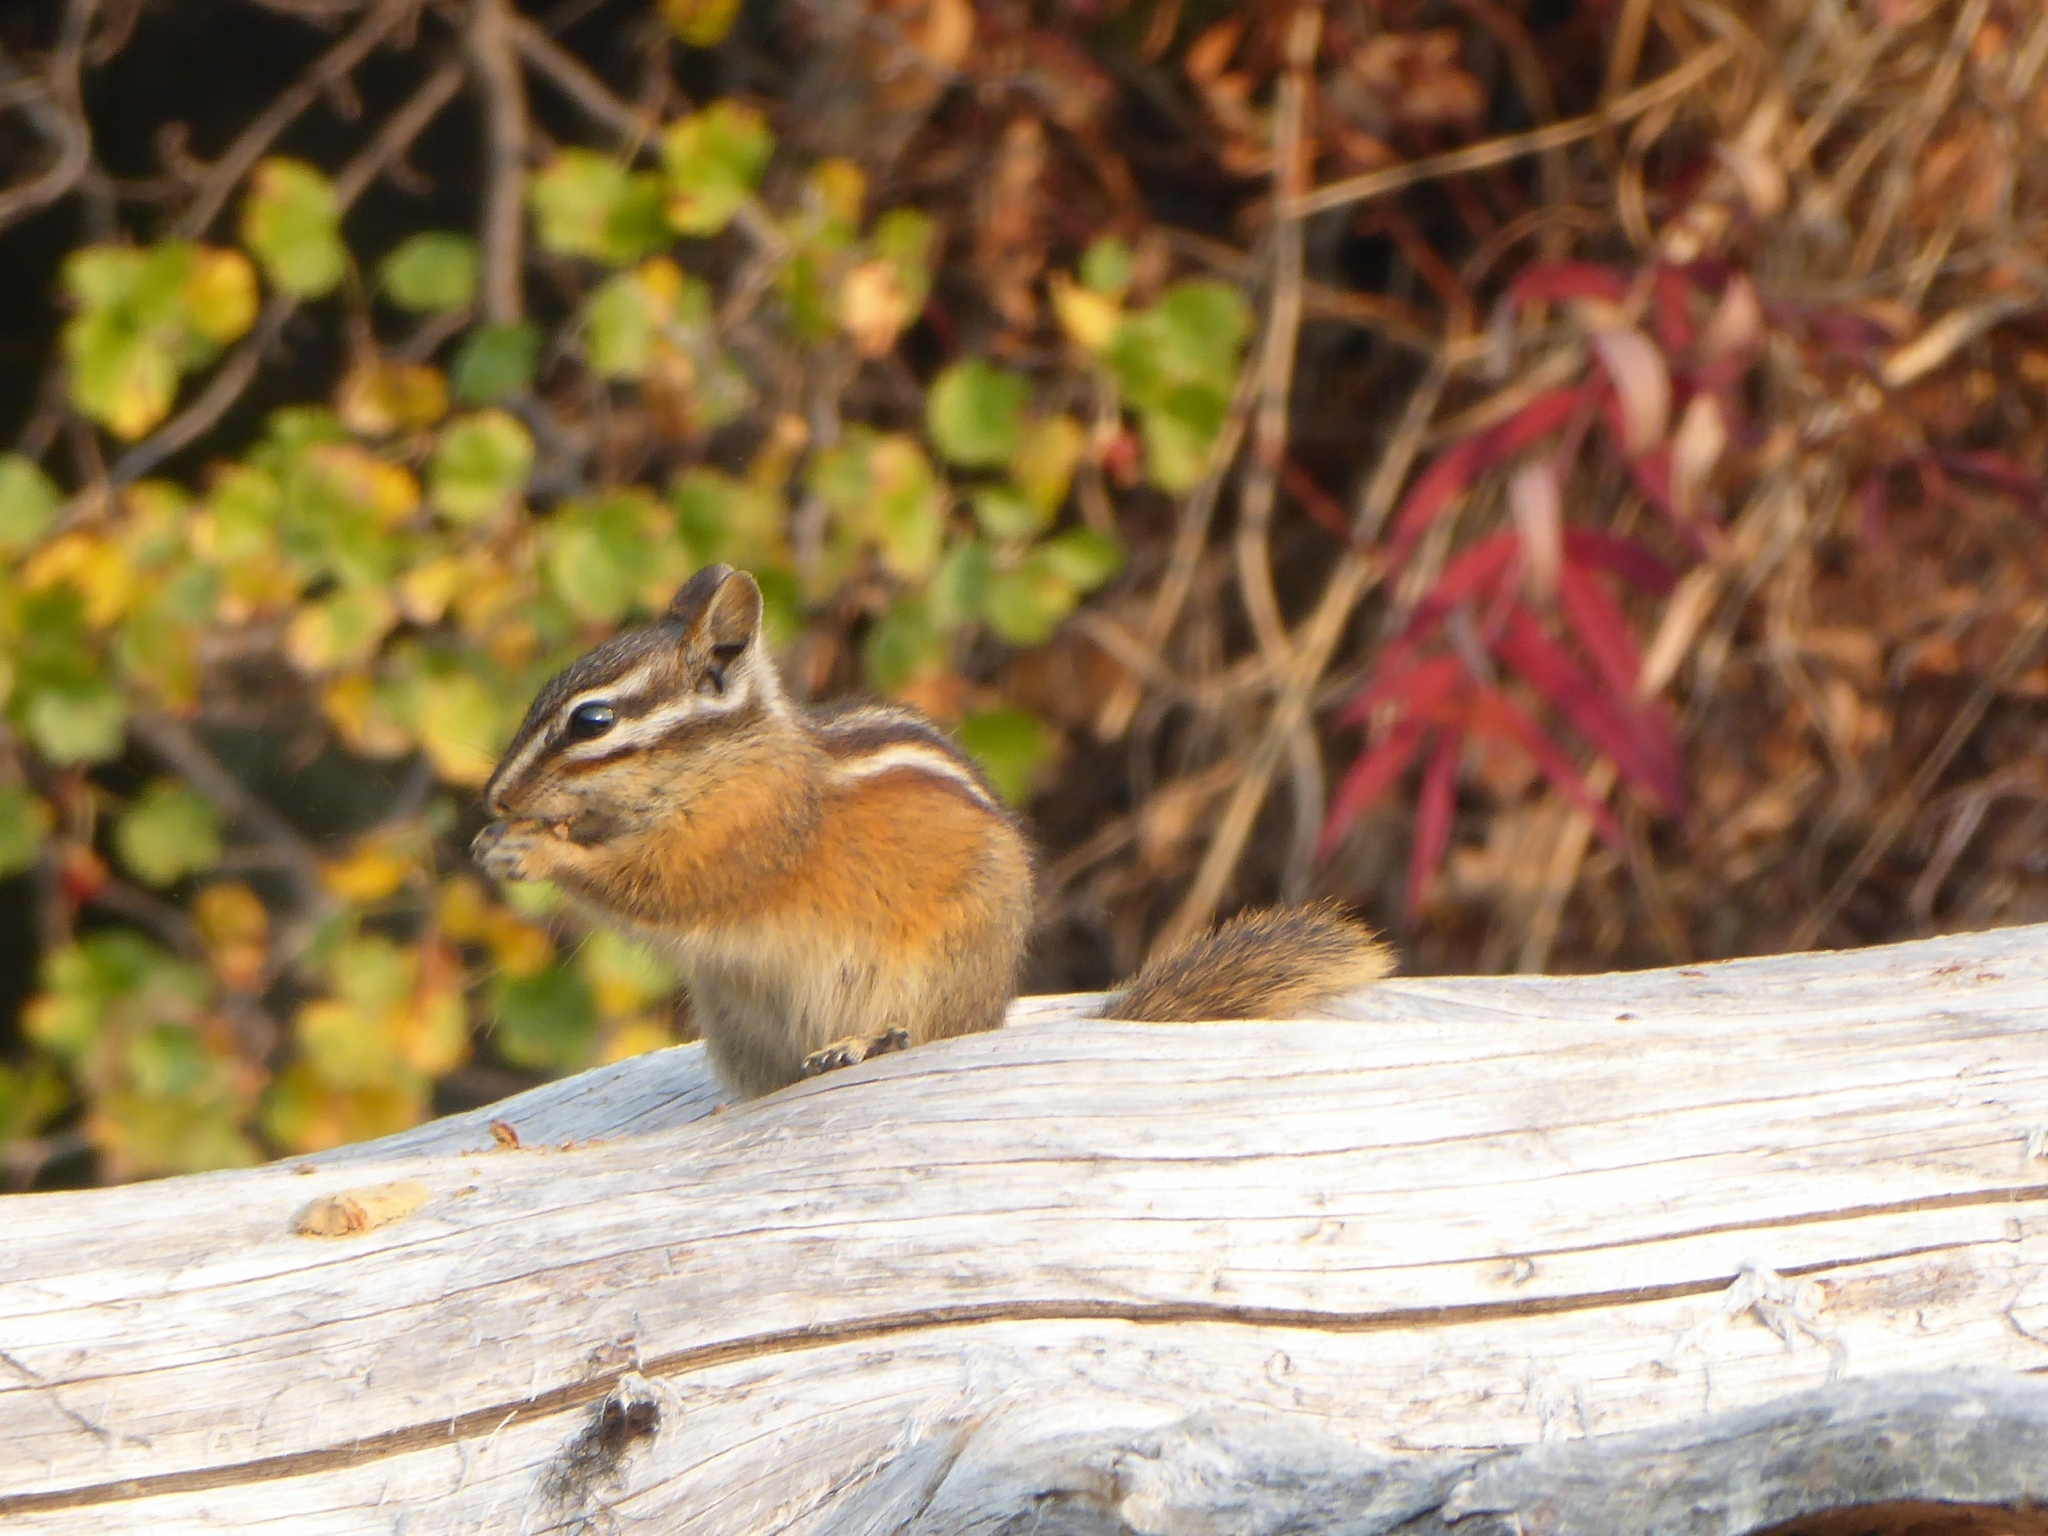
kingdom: Animalia
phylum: Chordata
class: Mammalia
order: Rodentia
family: Sciuridae
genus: Tamias
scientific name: Tamias amoenus
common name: Yellow-pine chipmunk
